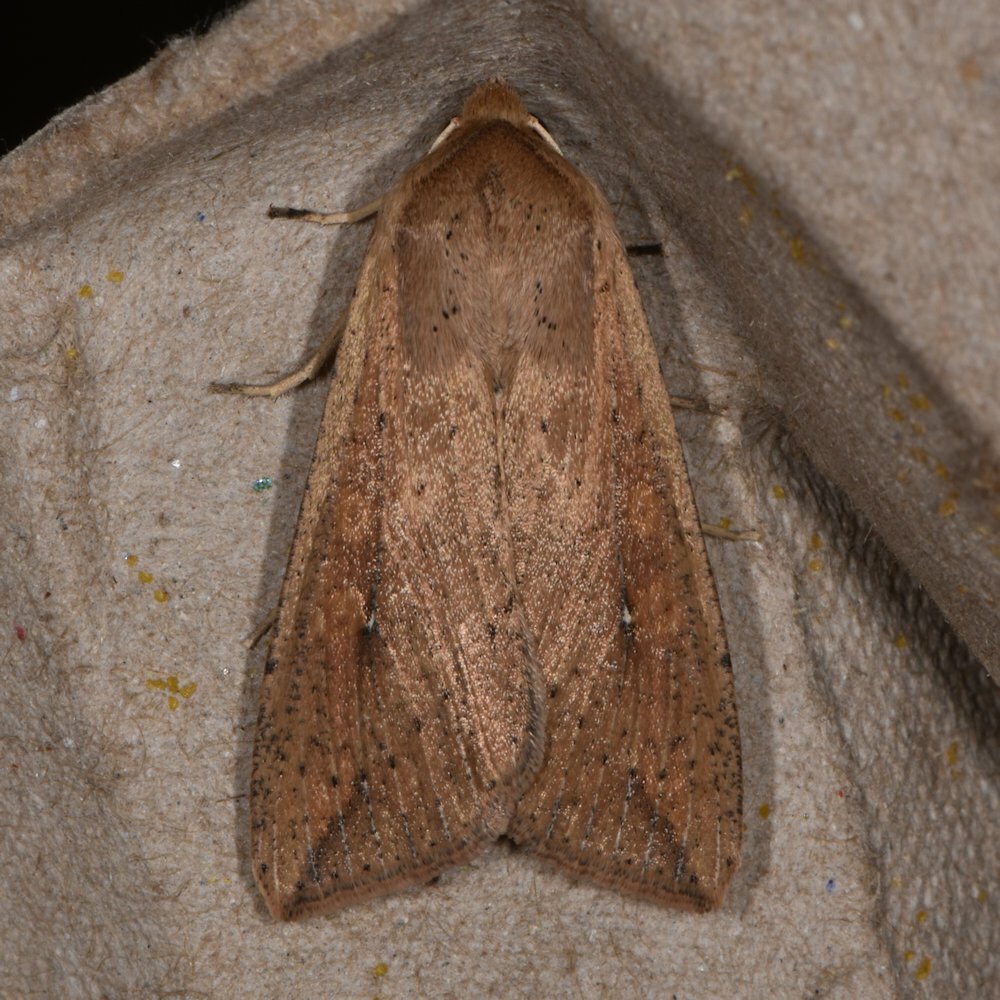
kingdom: Animalia
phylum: Arthropoda
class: Insecta
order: Lepidoptera
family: Noctuidae
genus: Mythimna
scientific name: Mythimna unipuncta
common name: White-speck
